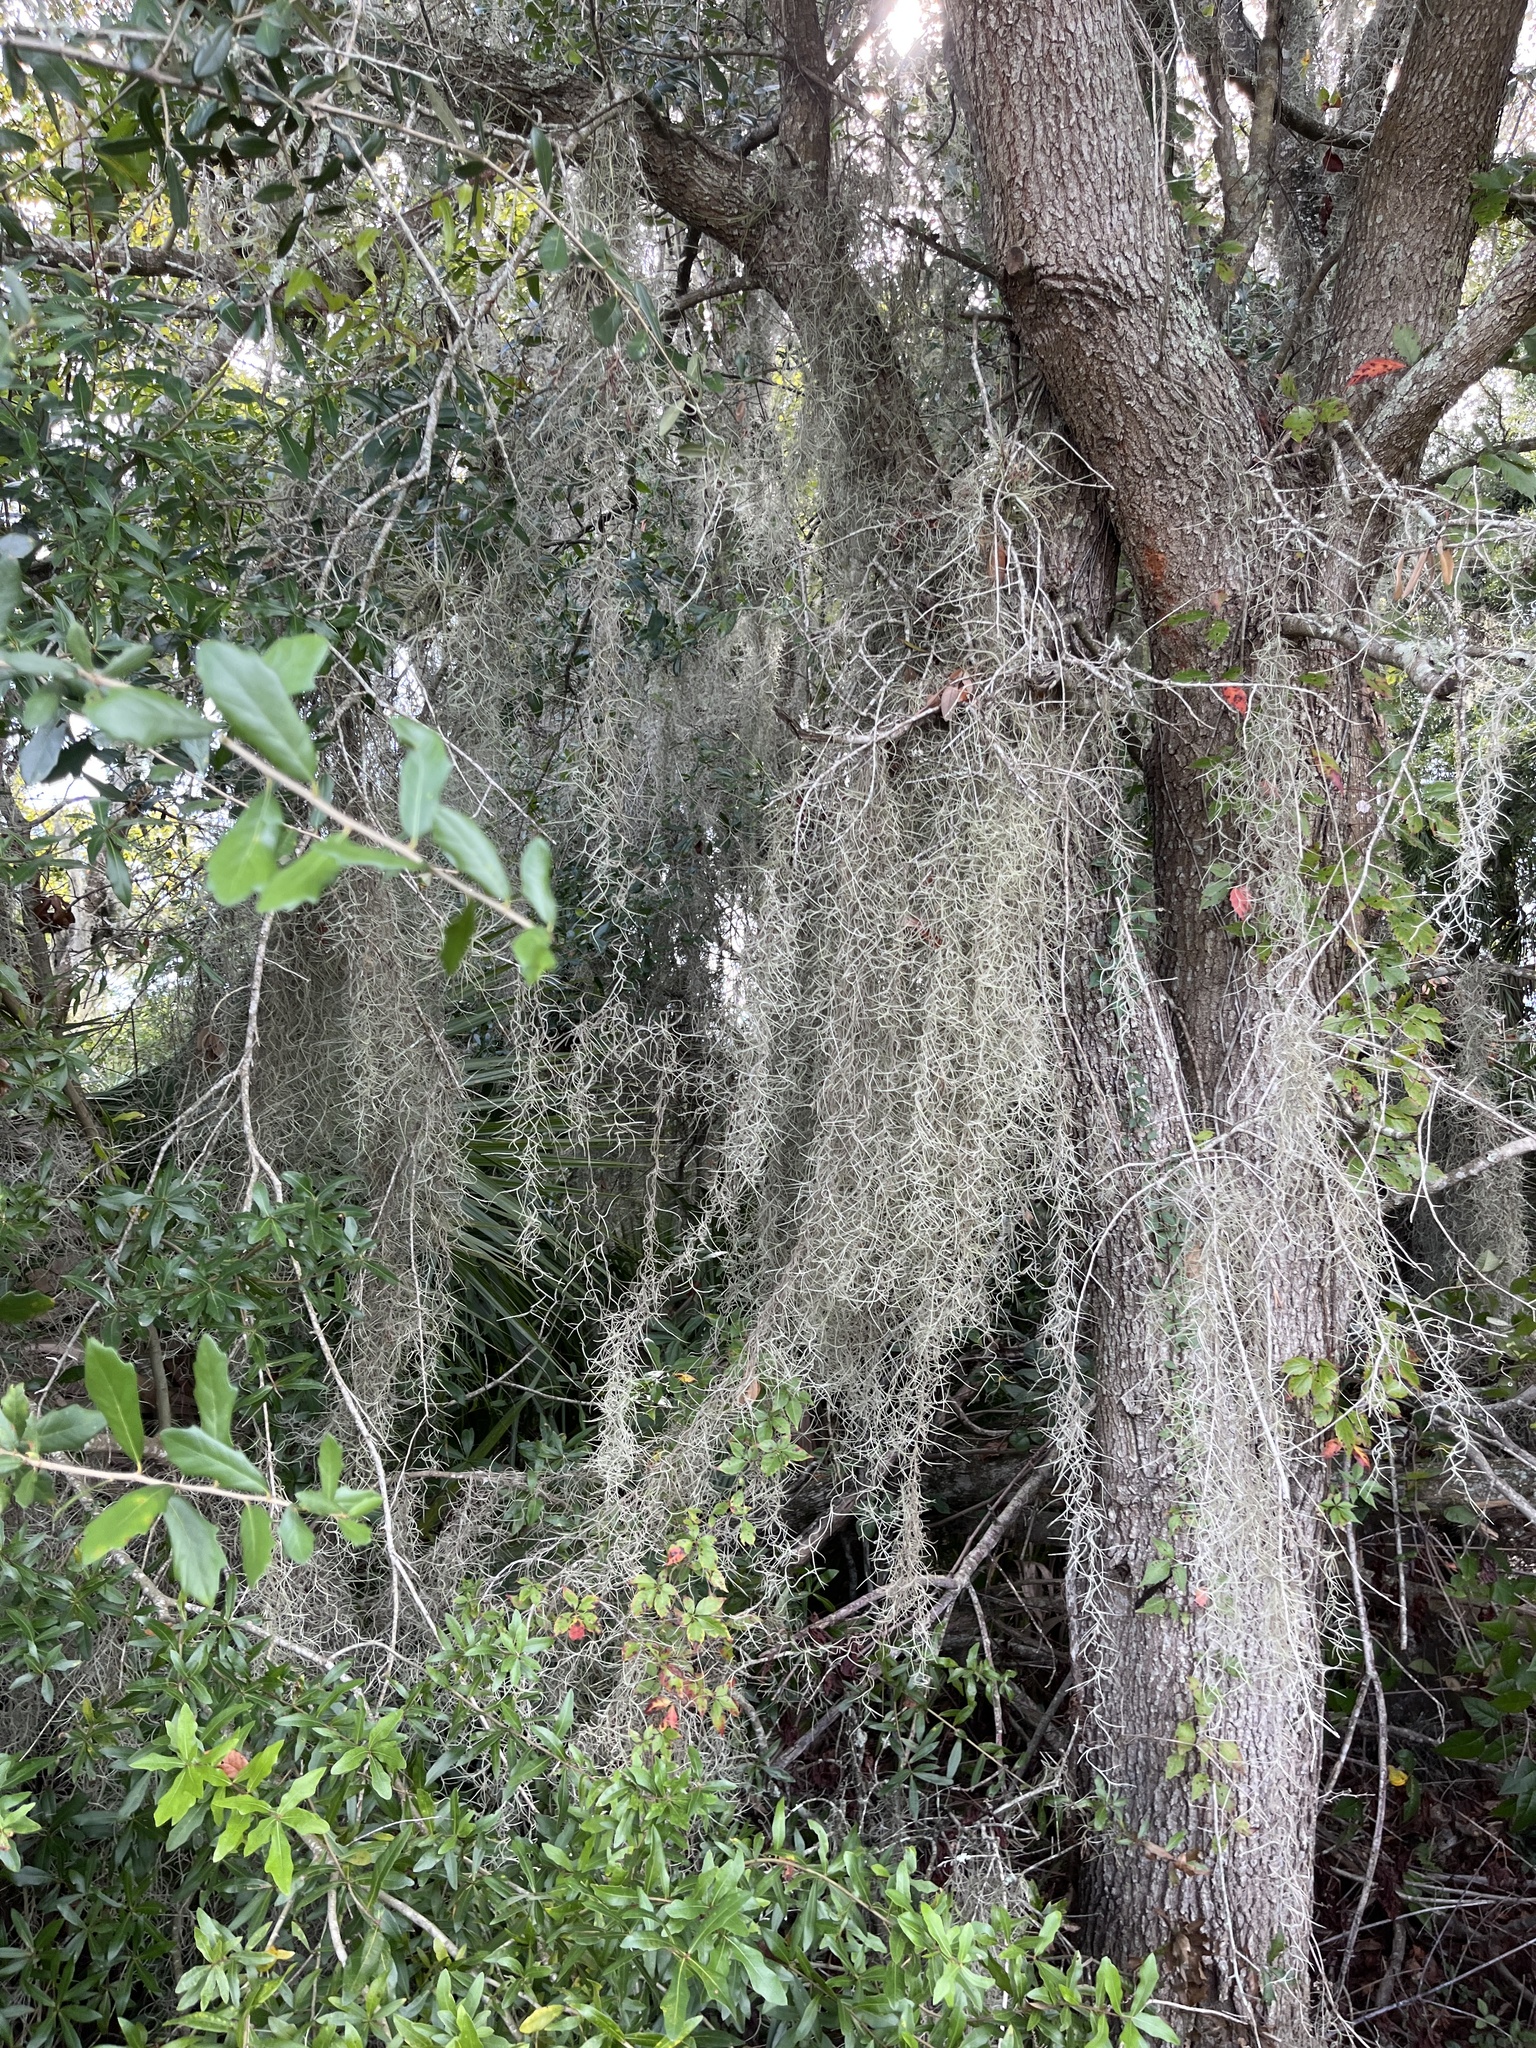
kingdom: Plantae
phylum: Tracheophyta
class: Liliopsida
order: Poales
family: Bromeliaceae
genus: Tillandsia
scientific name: Tillandsia usneoides
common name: Spanish moss
